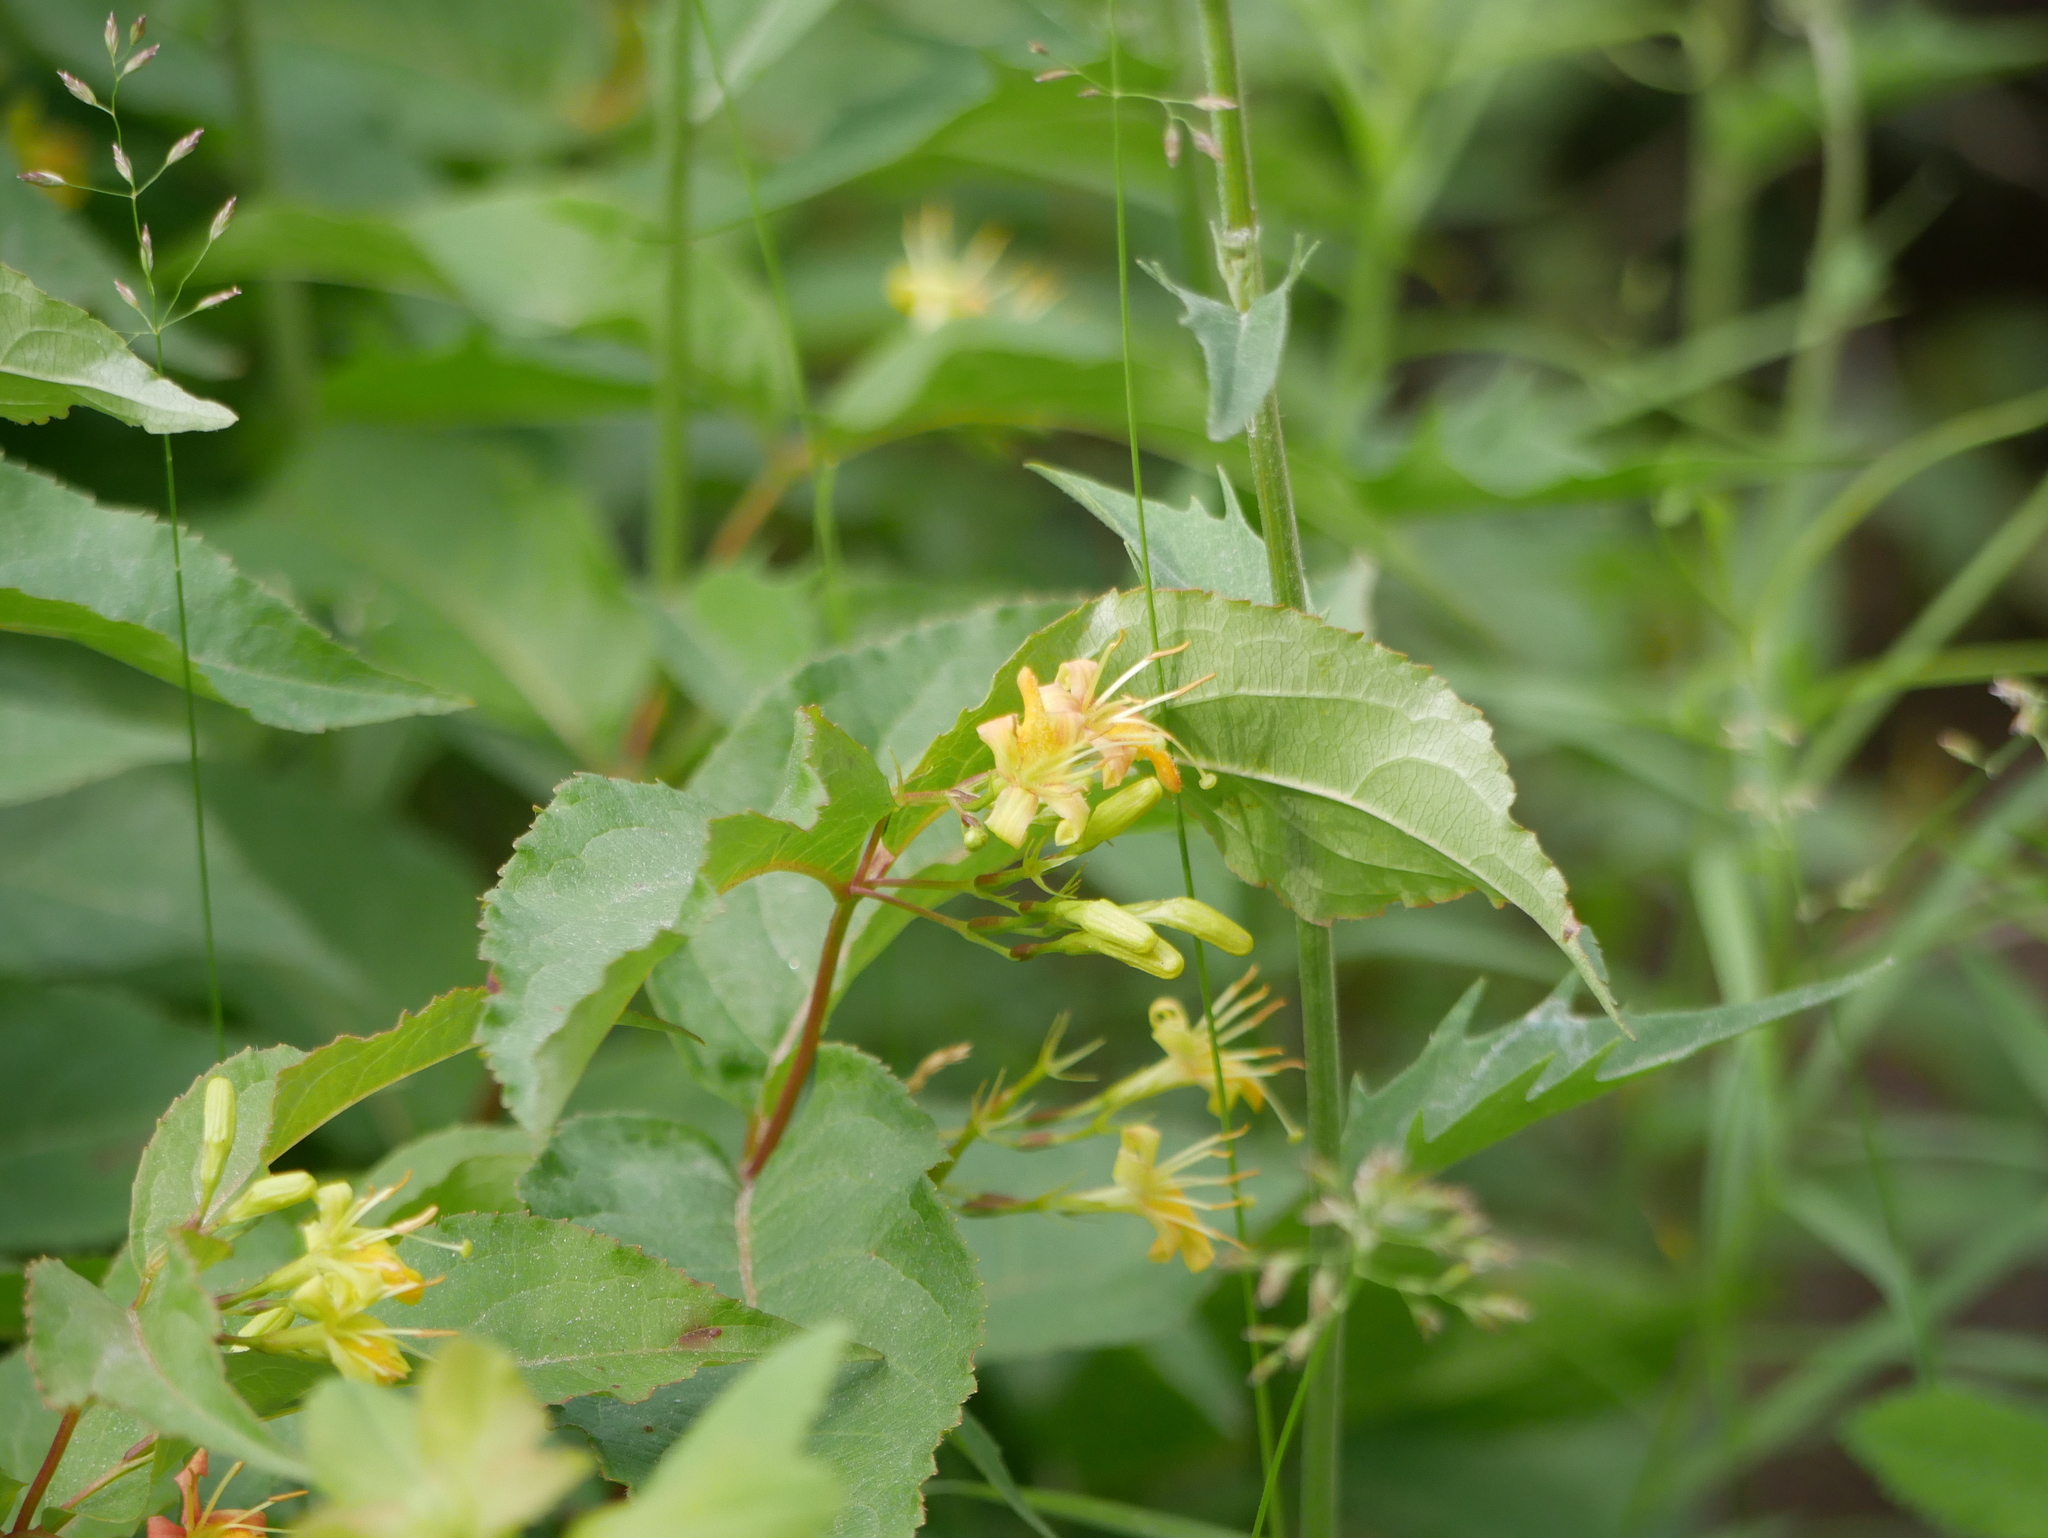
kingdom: Plantae
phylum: Tracheophyta
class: Magnoliopsida
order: Dipsacales
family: Caprifoliaceae
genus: Diervilla
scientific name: Diervilla lonicera
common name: Bush-honeysuckle
